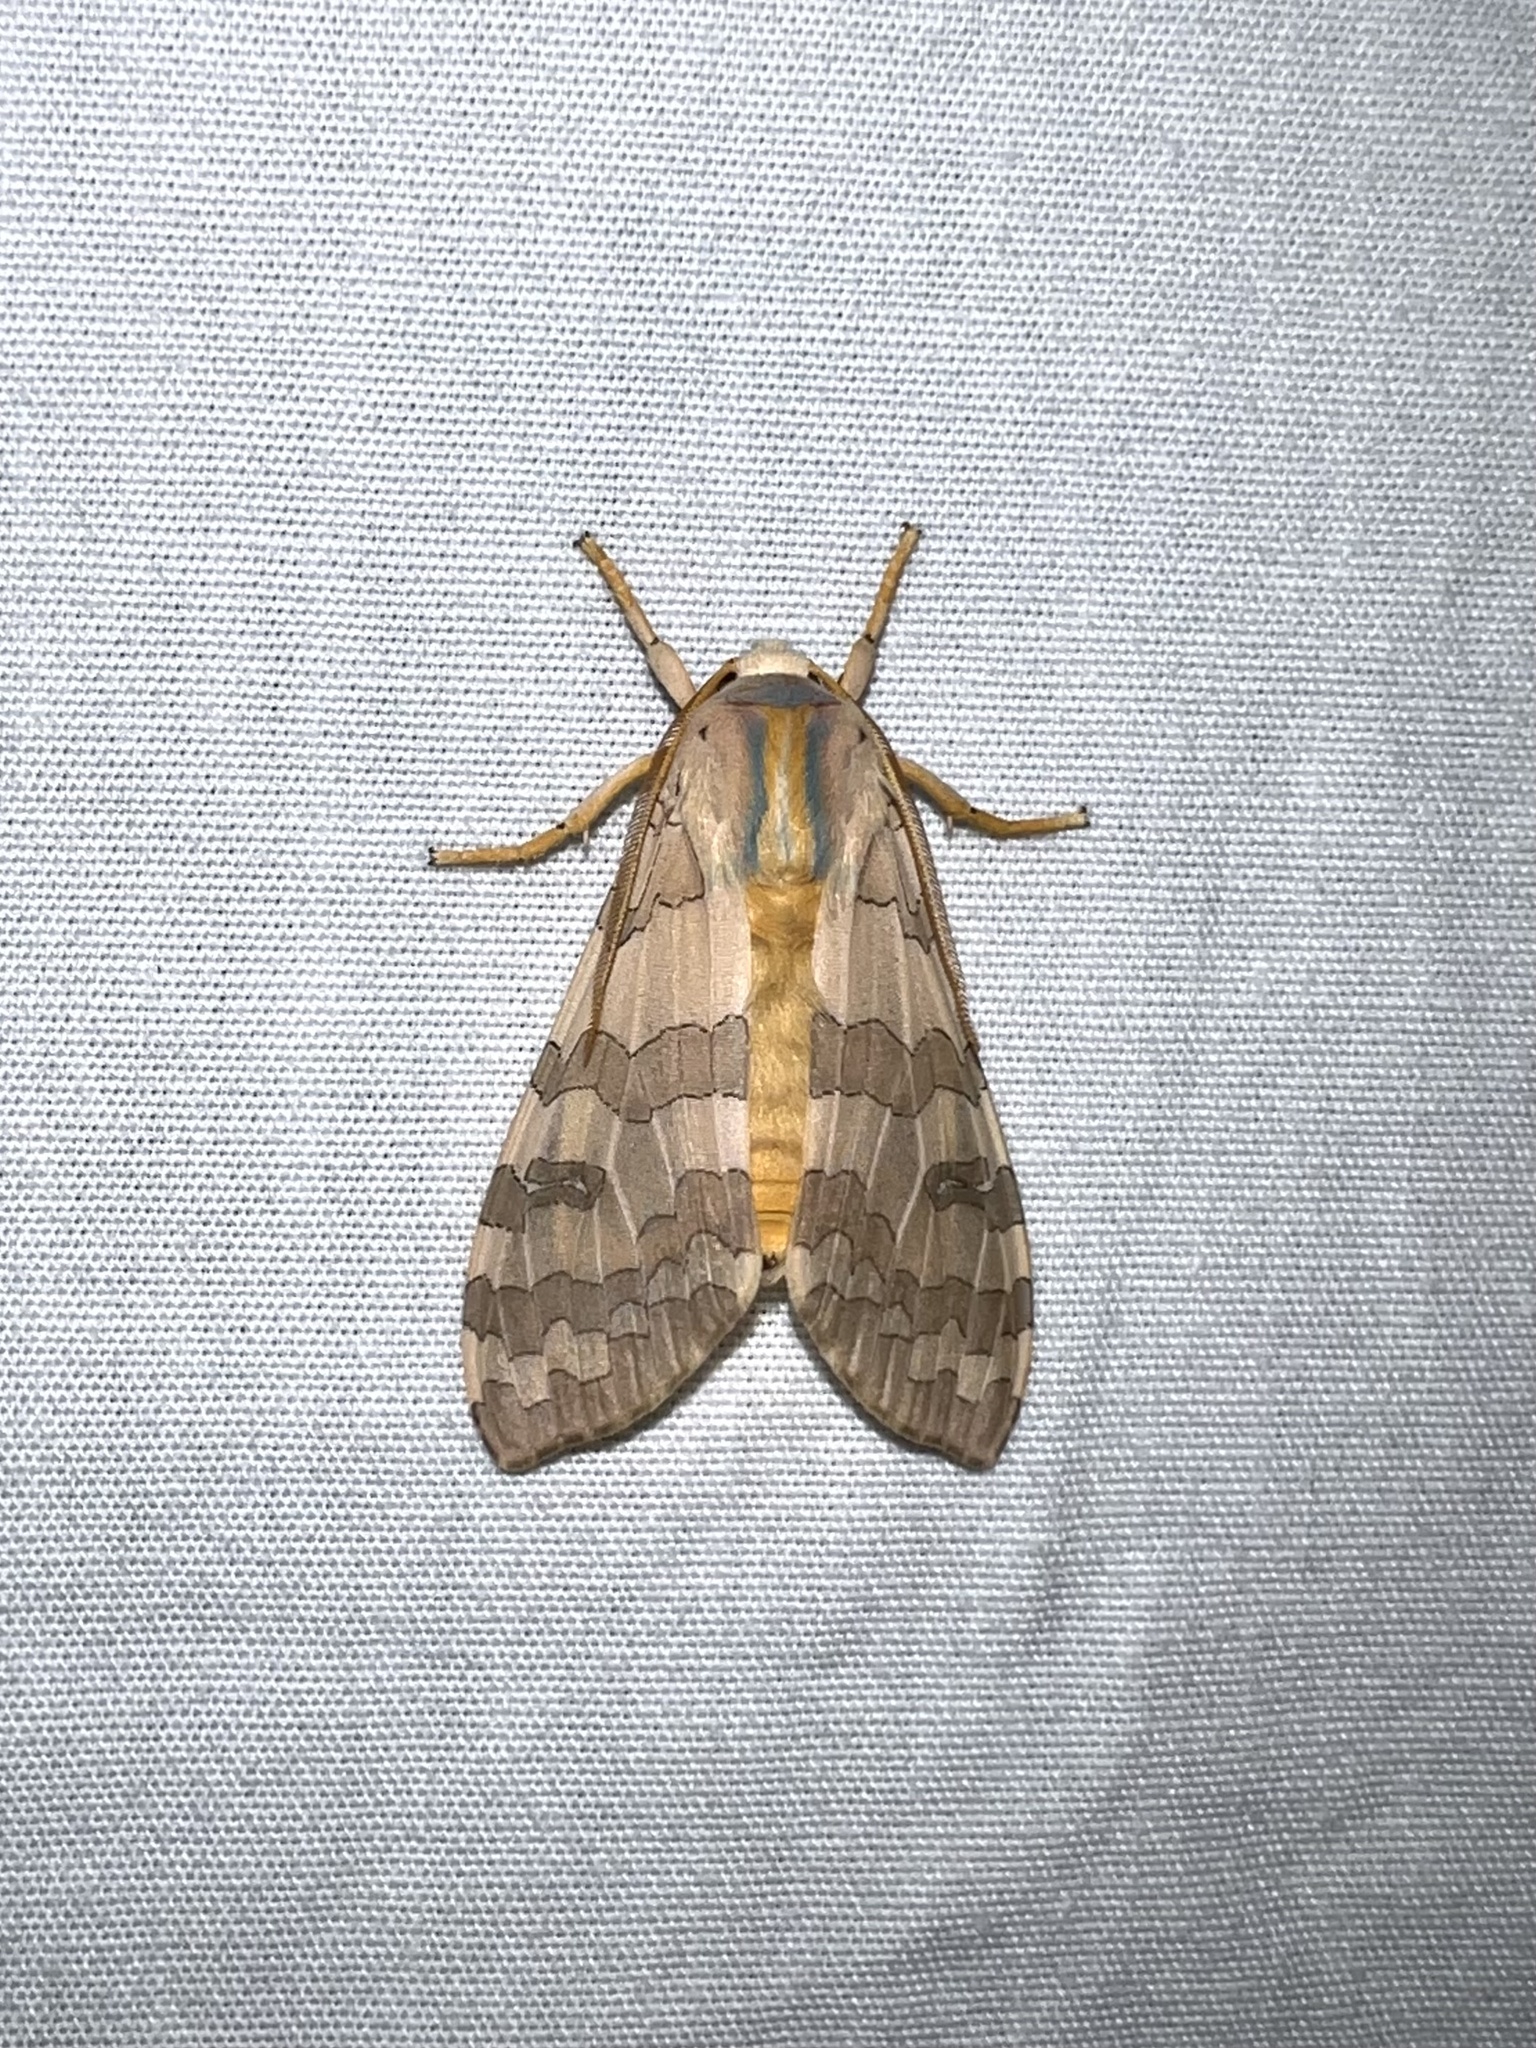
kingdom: Animalia
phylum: Arthropoda
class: Insecta
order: Lepidoptera
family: Erebidae
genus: Halysidota
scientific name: Halysidota
